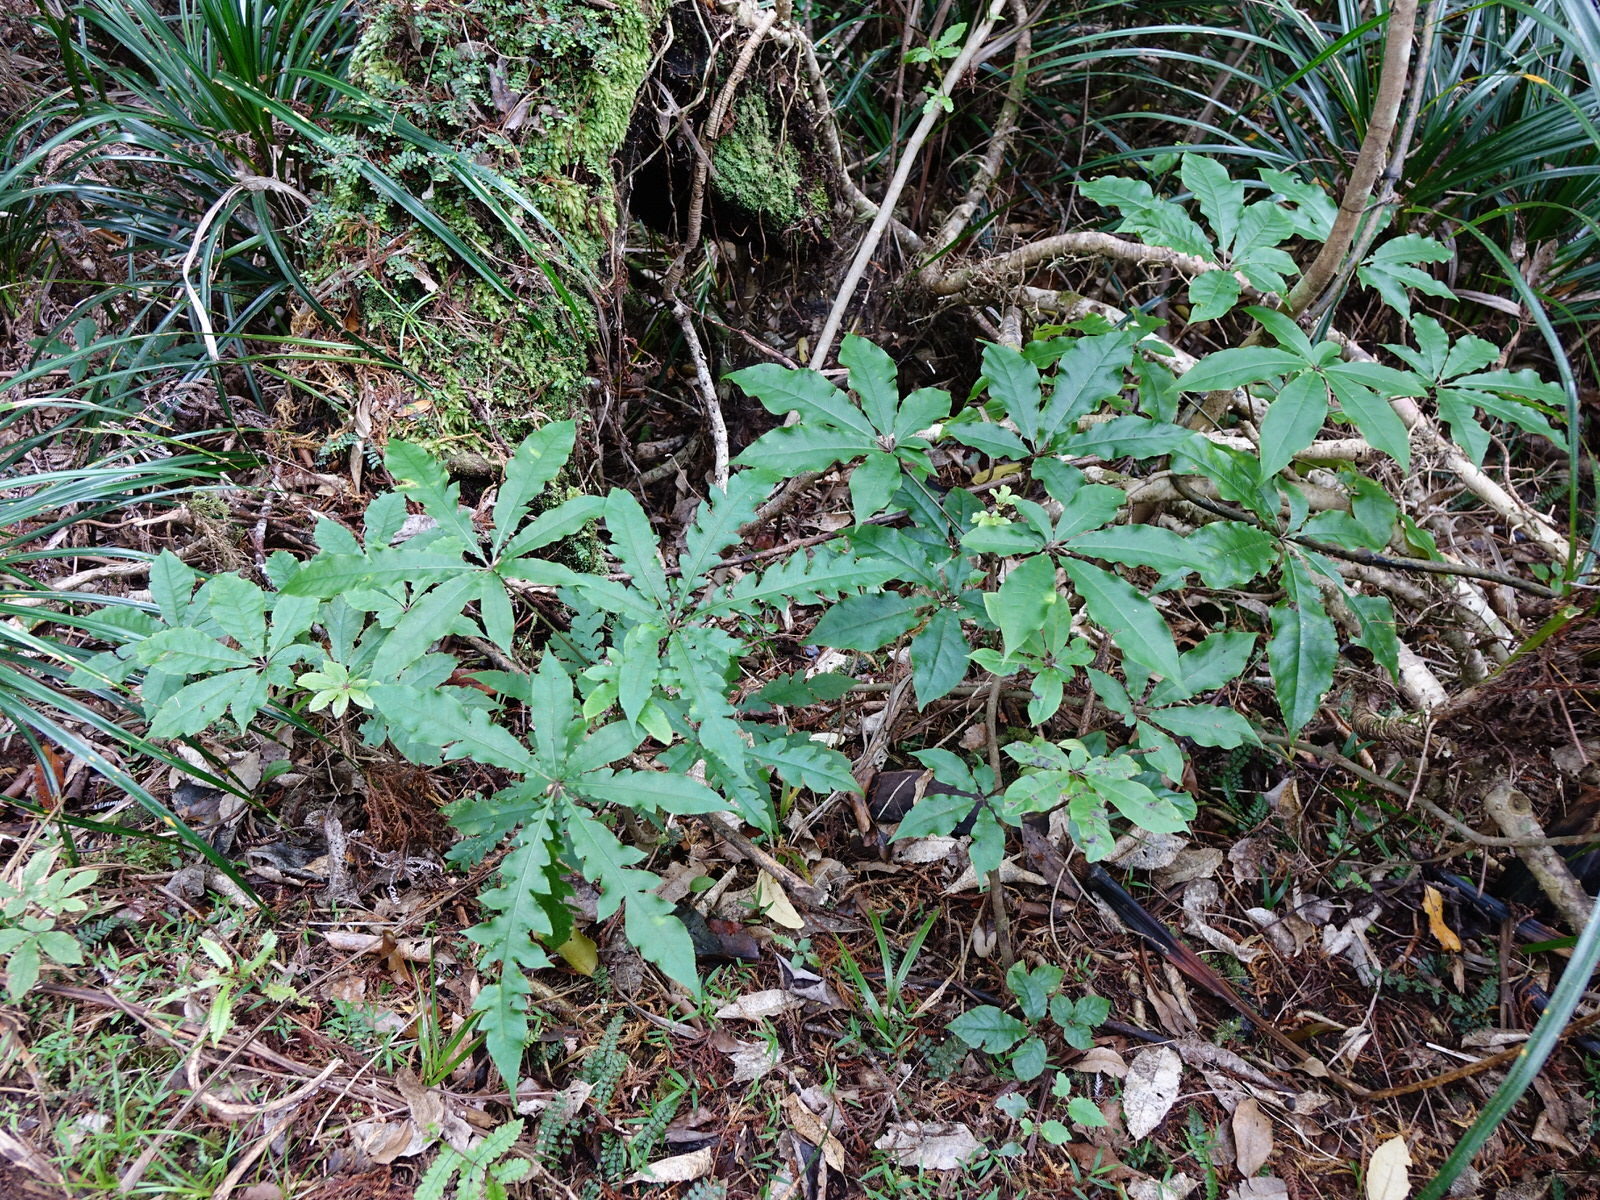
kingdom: Plantae
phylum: Tracheophyta
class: Magnoliopsida
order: Apiales
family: Araliaceae
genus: Schefflera
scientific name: Schefflera digitata
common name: Pate
